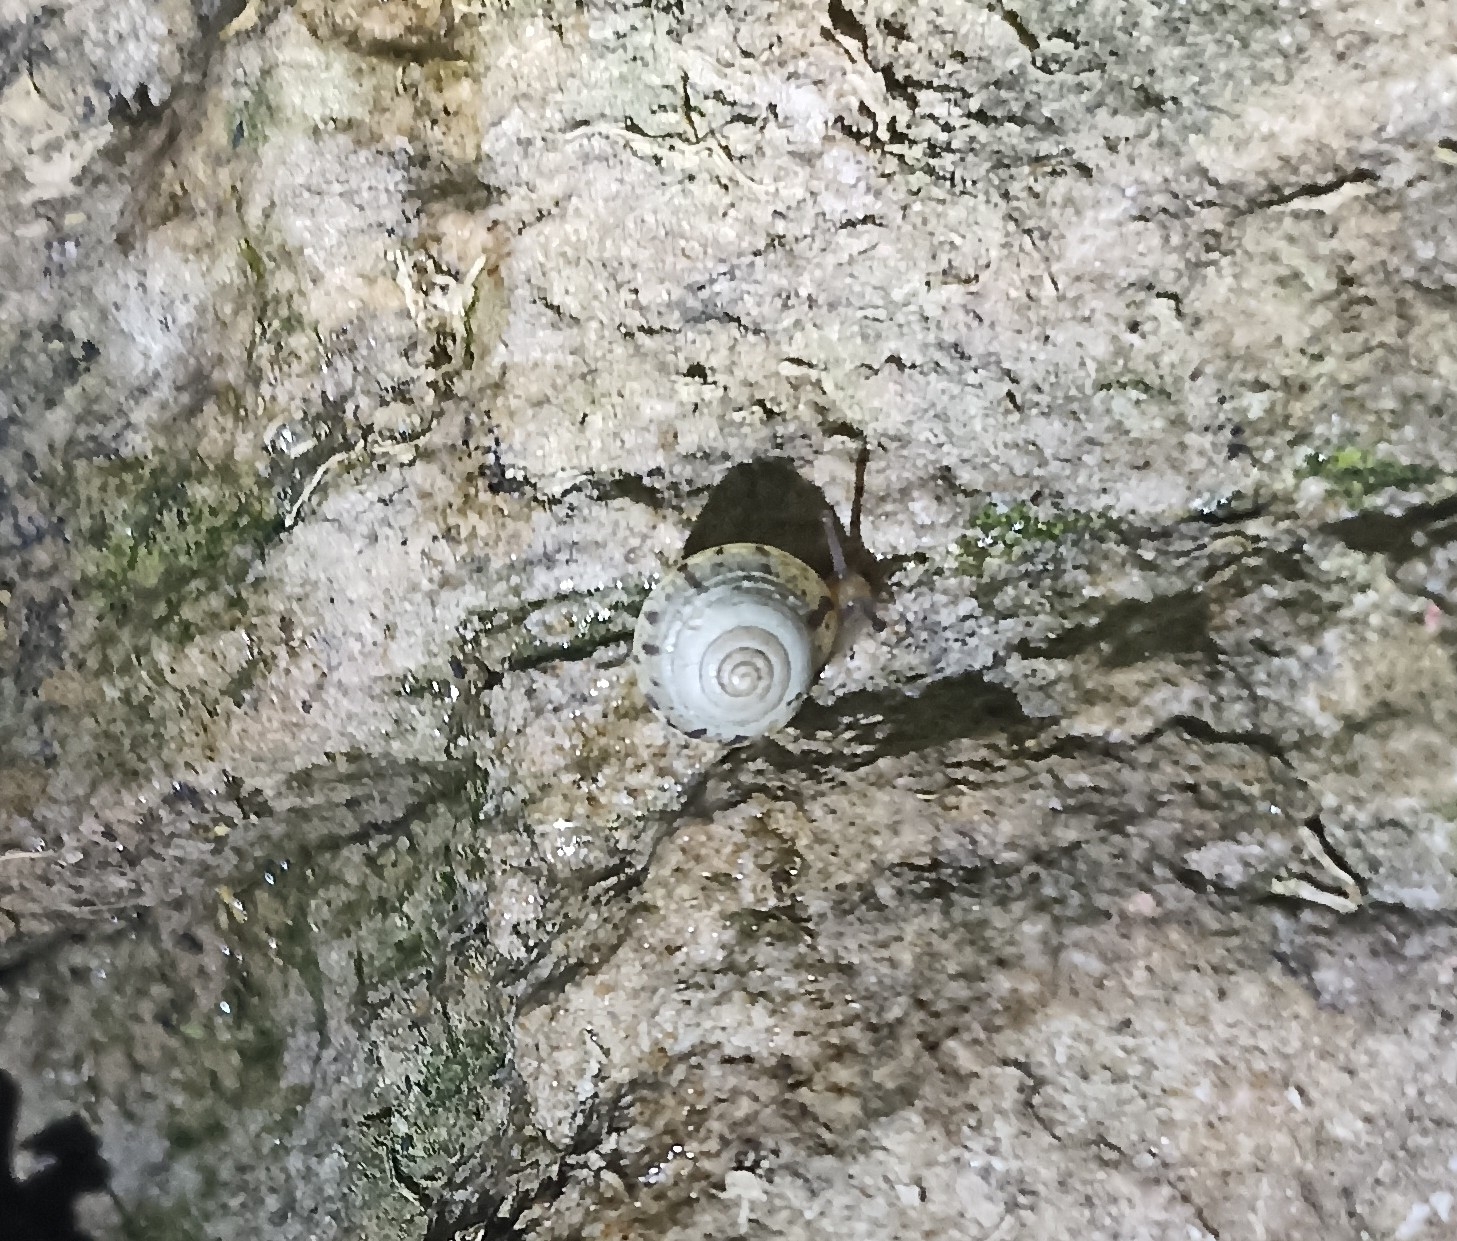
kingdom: Animalia
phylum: Mollusca
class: Gastropoda
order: Stylommatophora
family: Hygromiidae
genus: Hygromia
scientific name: Hygromia cinctella
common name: Girdled snail
